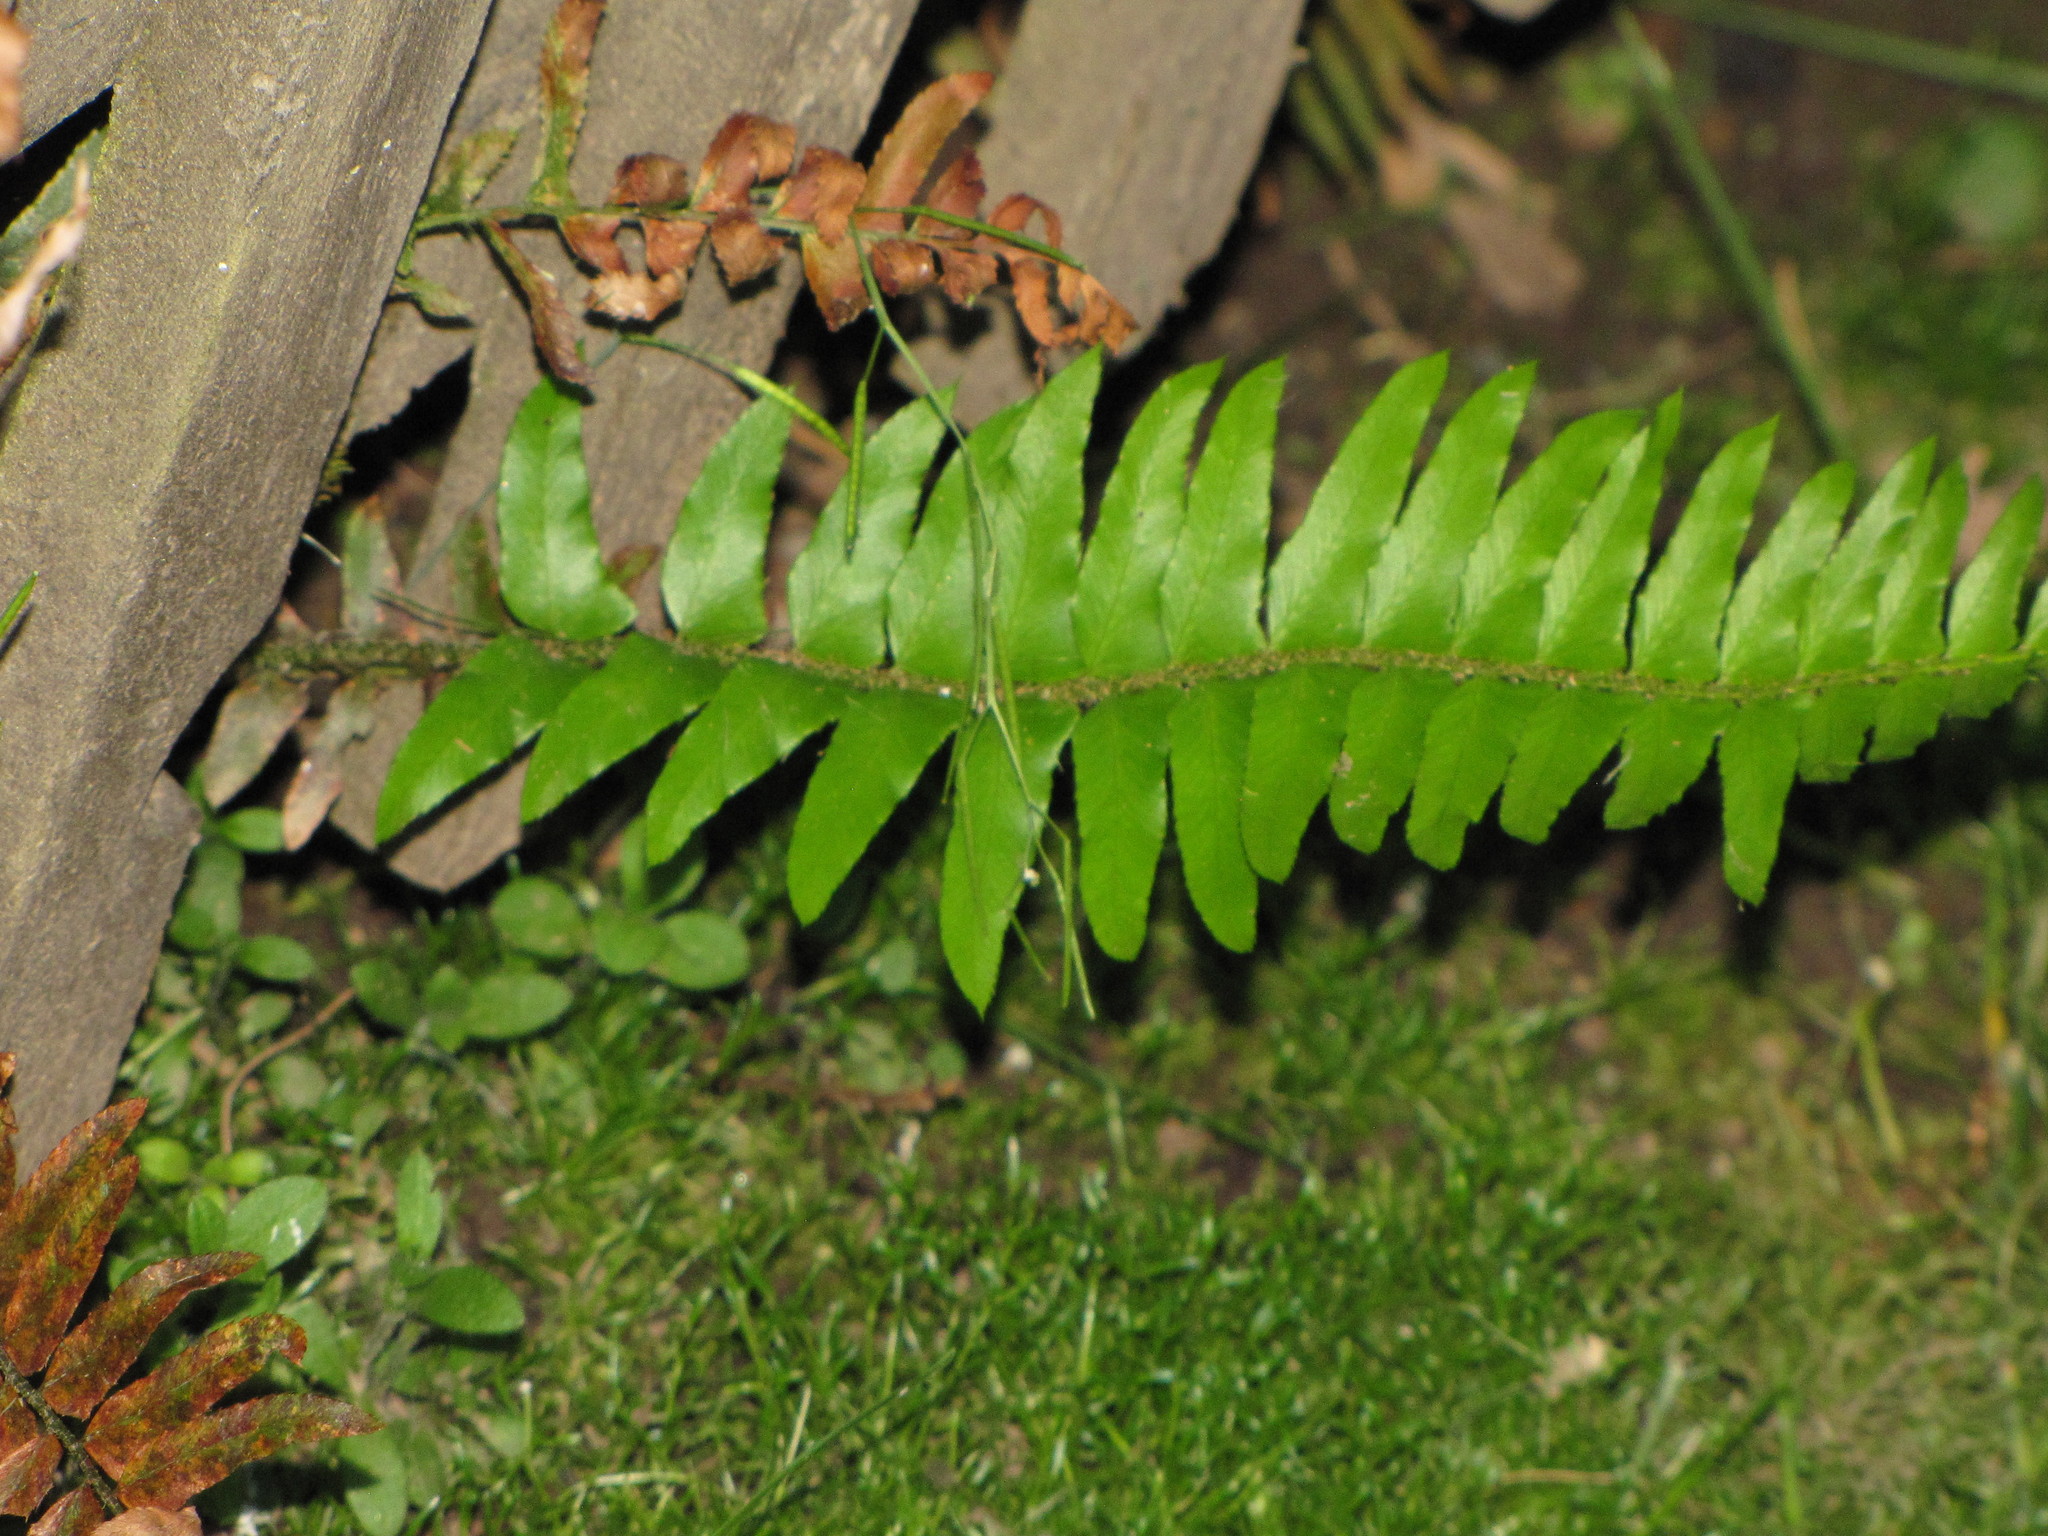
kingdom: Plantae
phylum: Tracheophyta
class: Polypodiopsida
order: Polypodiales
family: Dryopteridaceae
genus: Polystichum
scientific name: Polystichum munitum
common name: Western sword-fern
